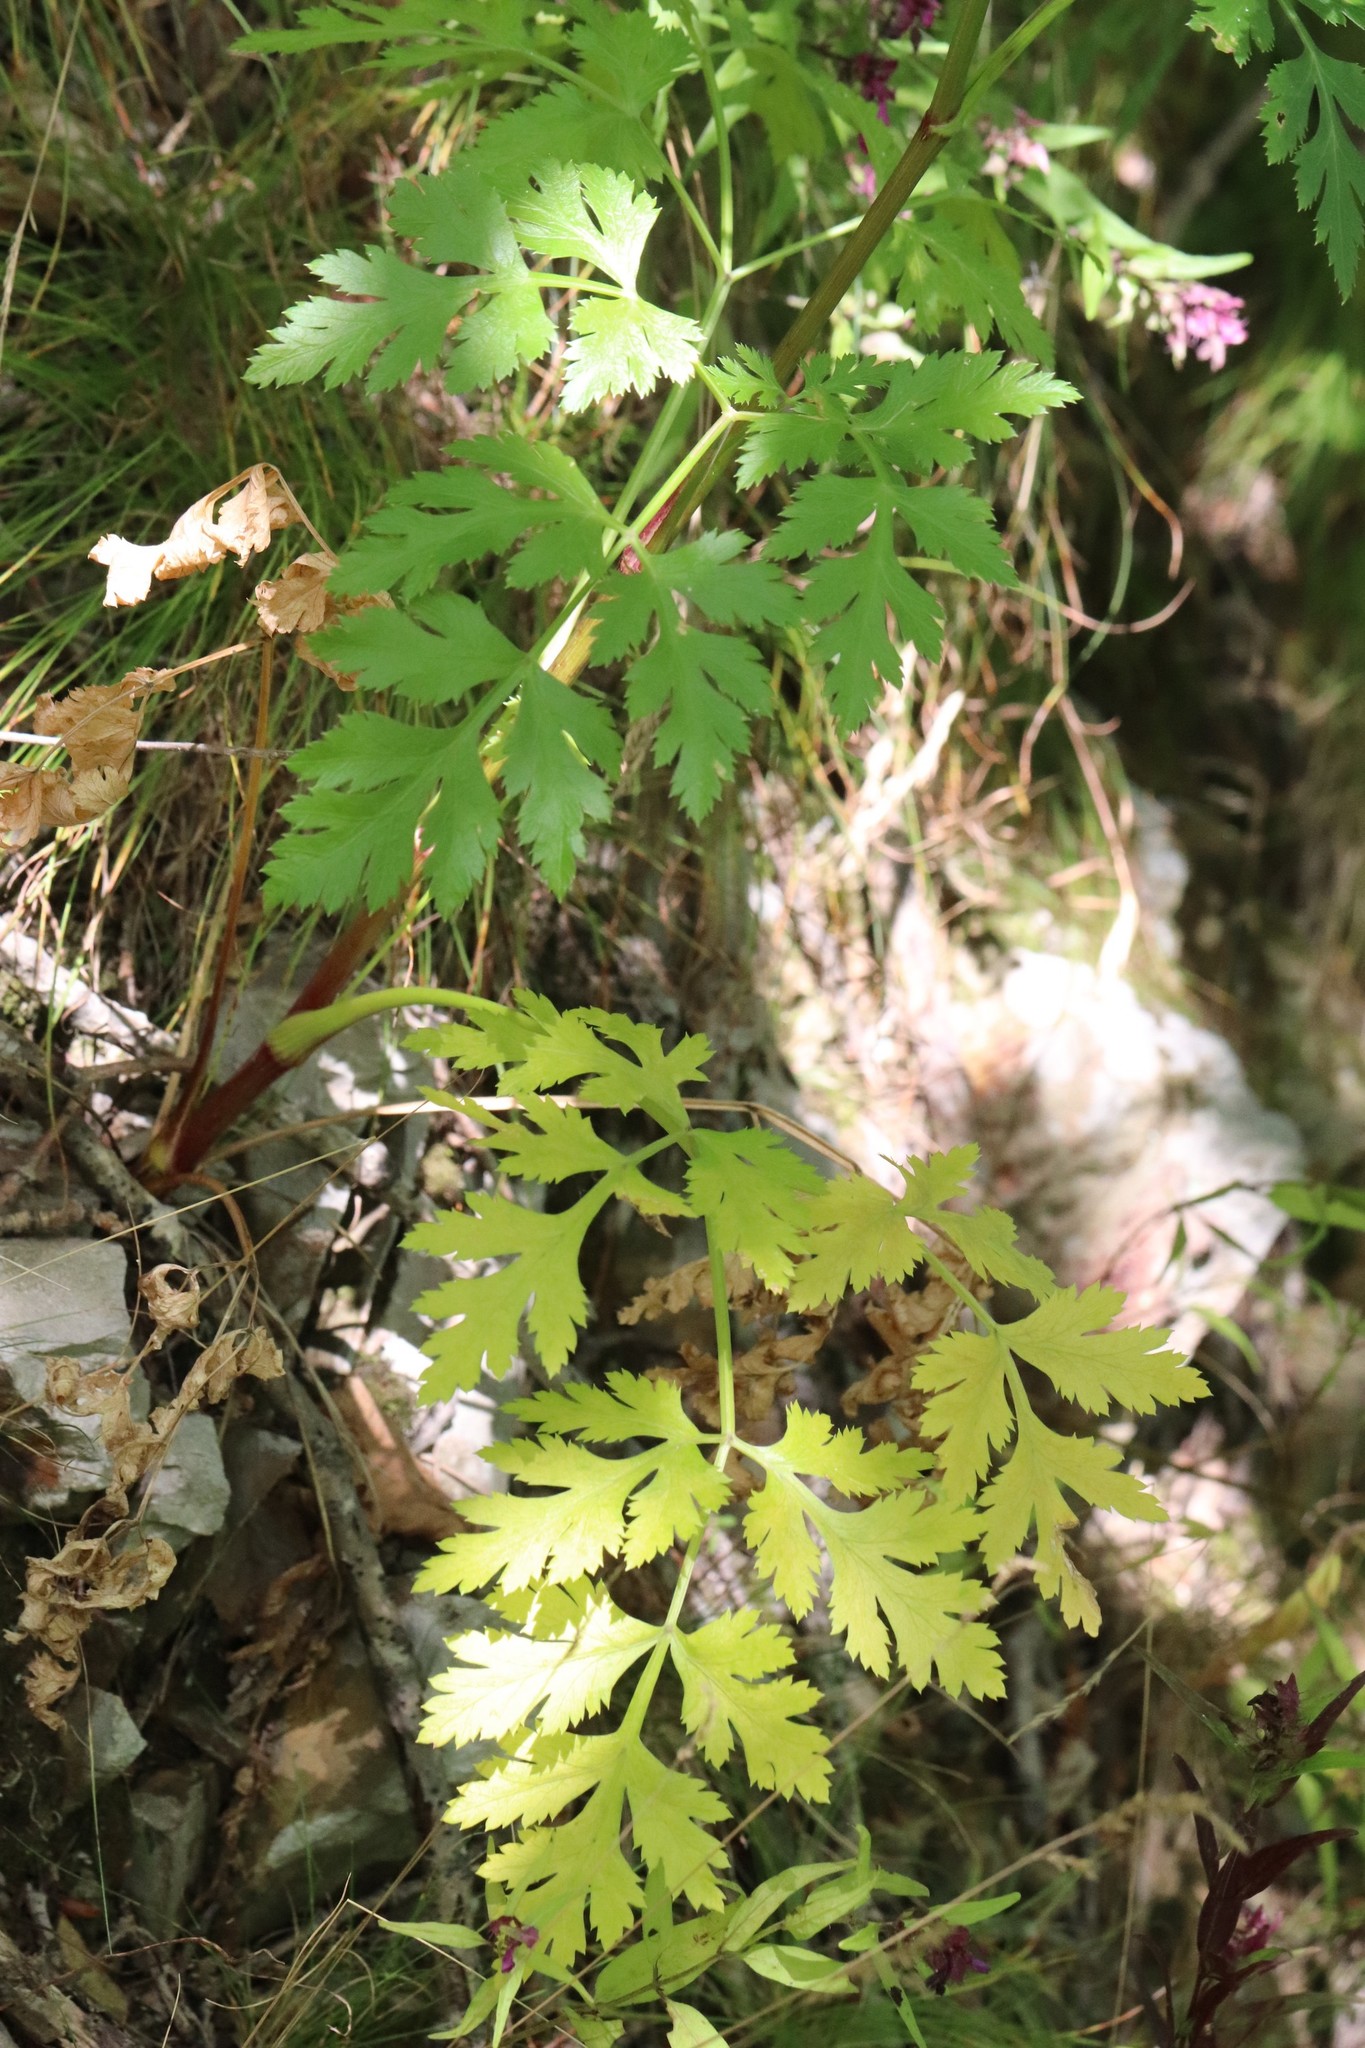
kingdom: Plantae
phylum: Tracheophyta
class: Magnoliopsida
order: Apiales
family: Apiaceae
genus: Kitagawia
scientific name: Kitagawia terebinthacea
